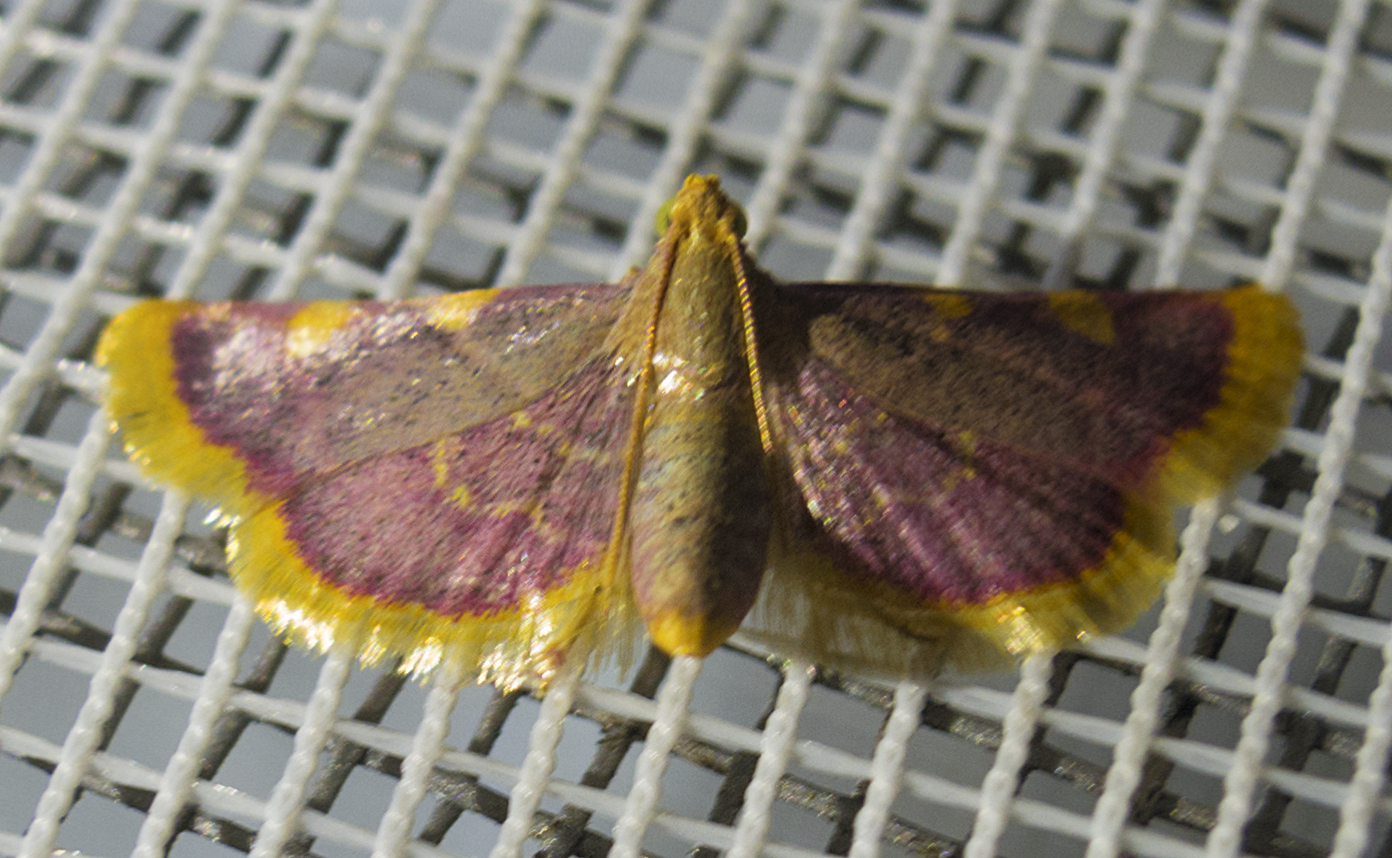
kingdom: Animalia
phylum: Arthropoda
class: Insecta
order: Lepidoptera
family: Pyralidae
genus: Hypsopygia
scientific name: Hypsopygia costalis
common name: Gold triangle
